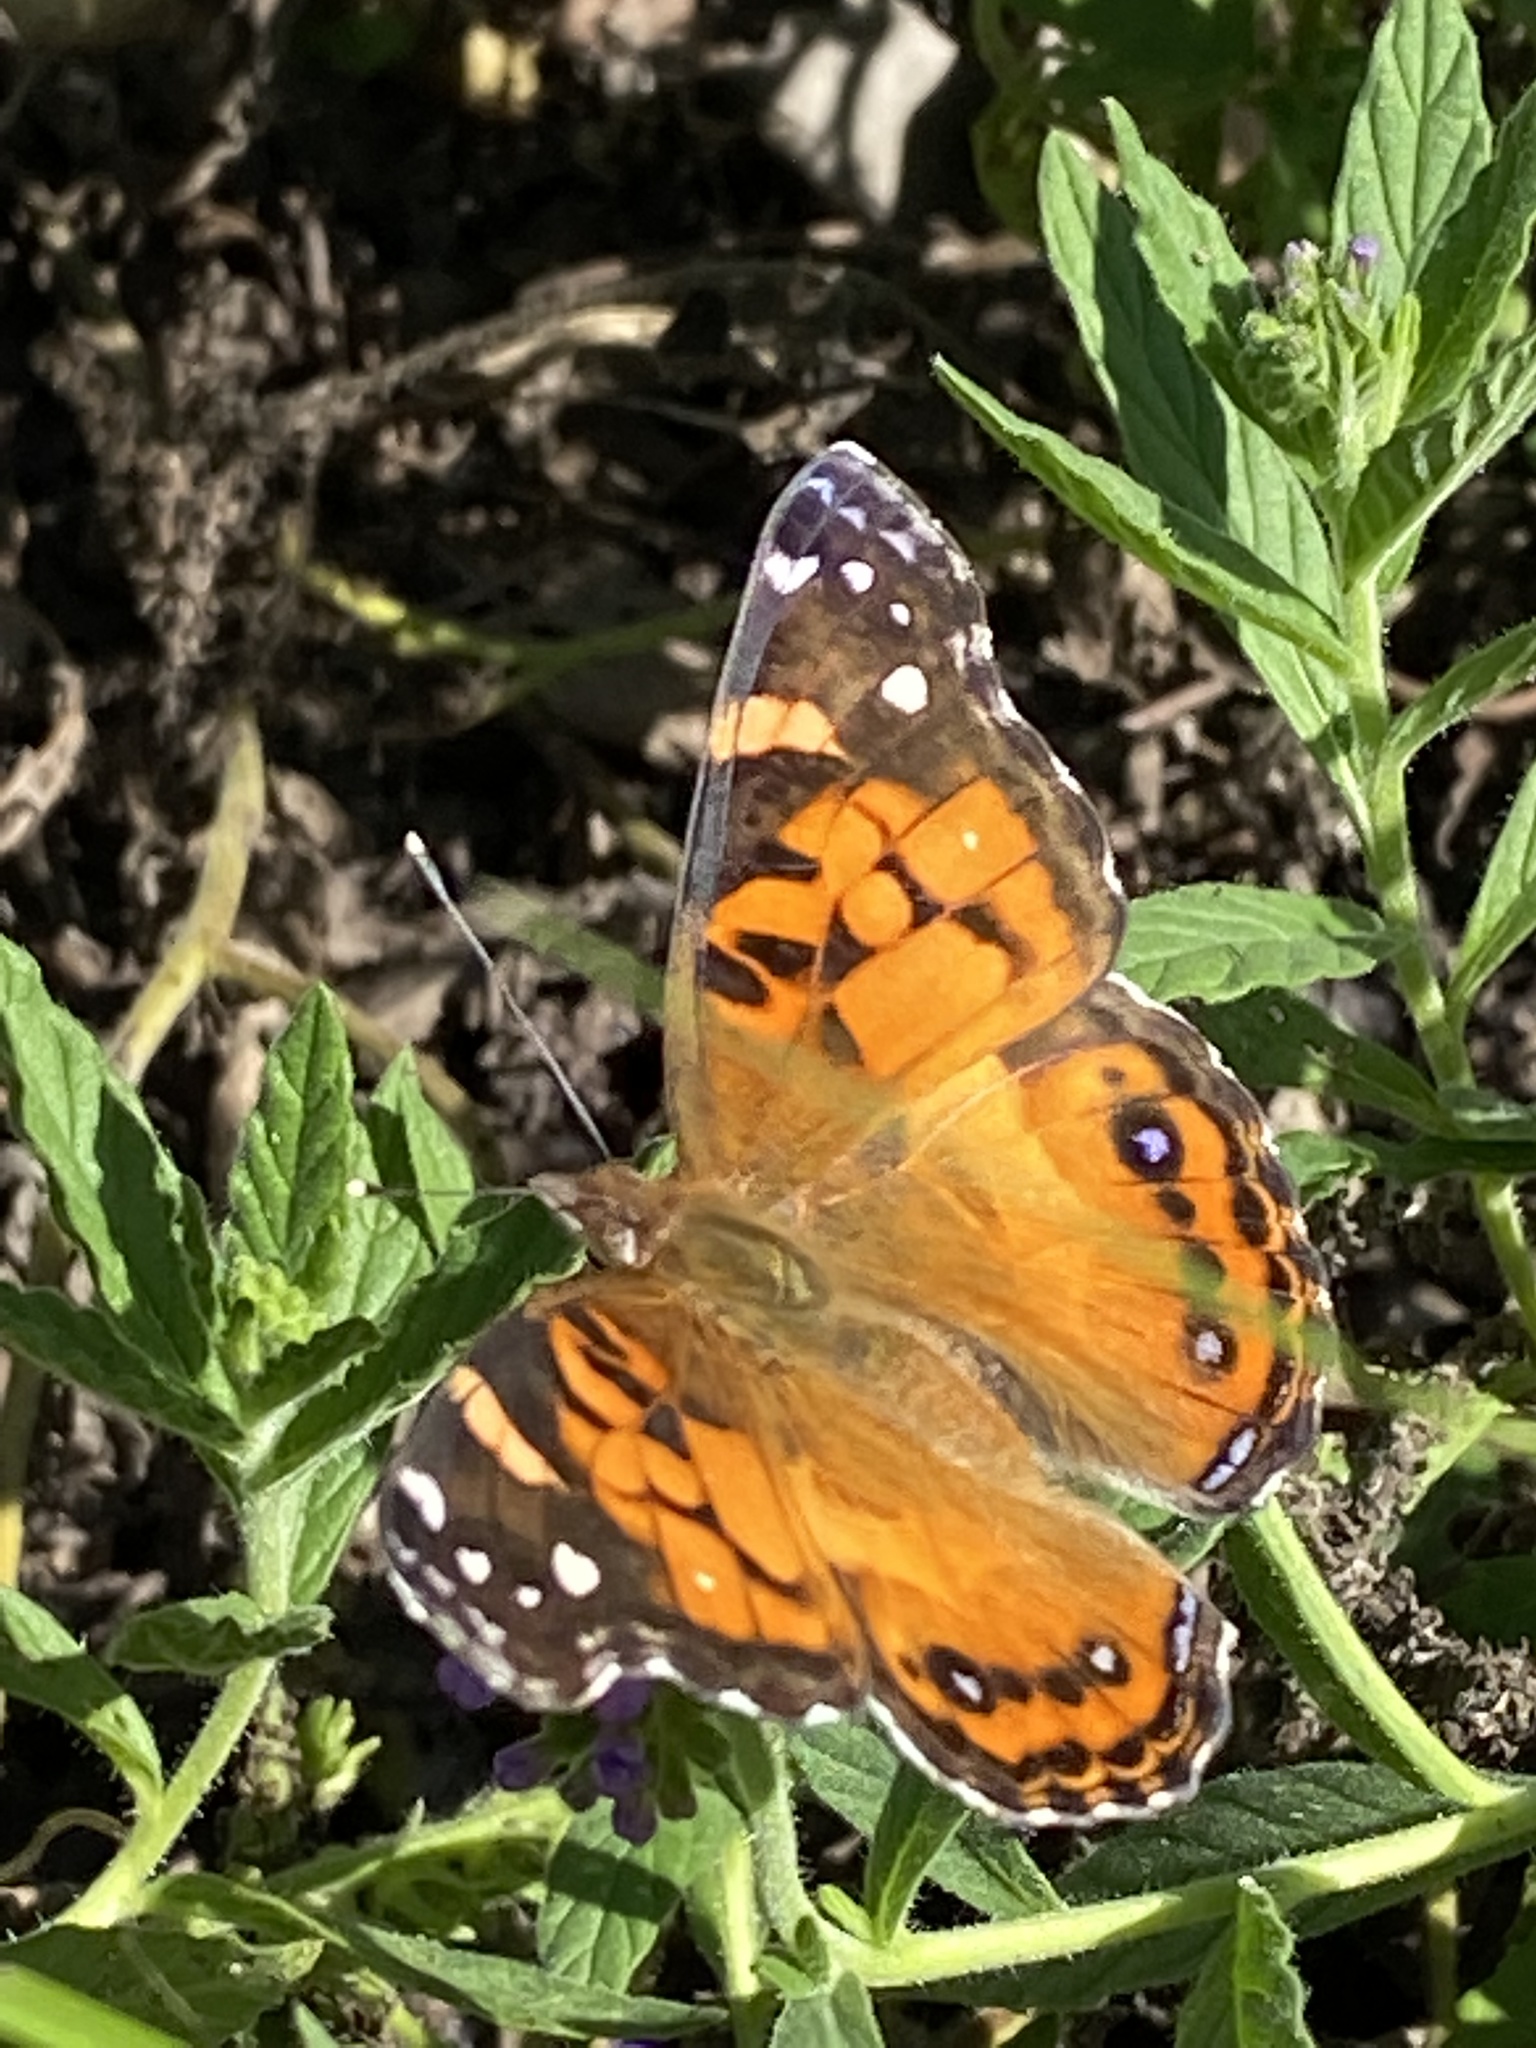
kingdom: Animalia
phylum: Arthropoda
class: Insecta
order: Lepidoptera
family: Nymphalidae
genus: Vanessa
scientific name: Vanessa virginiensis
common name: American lady
